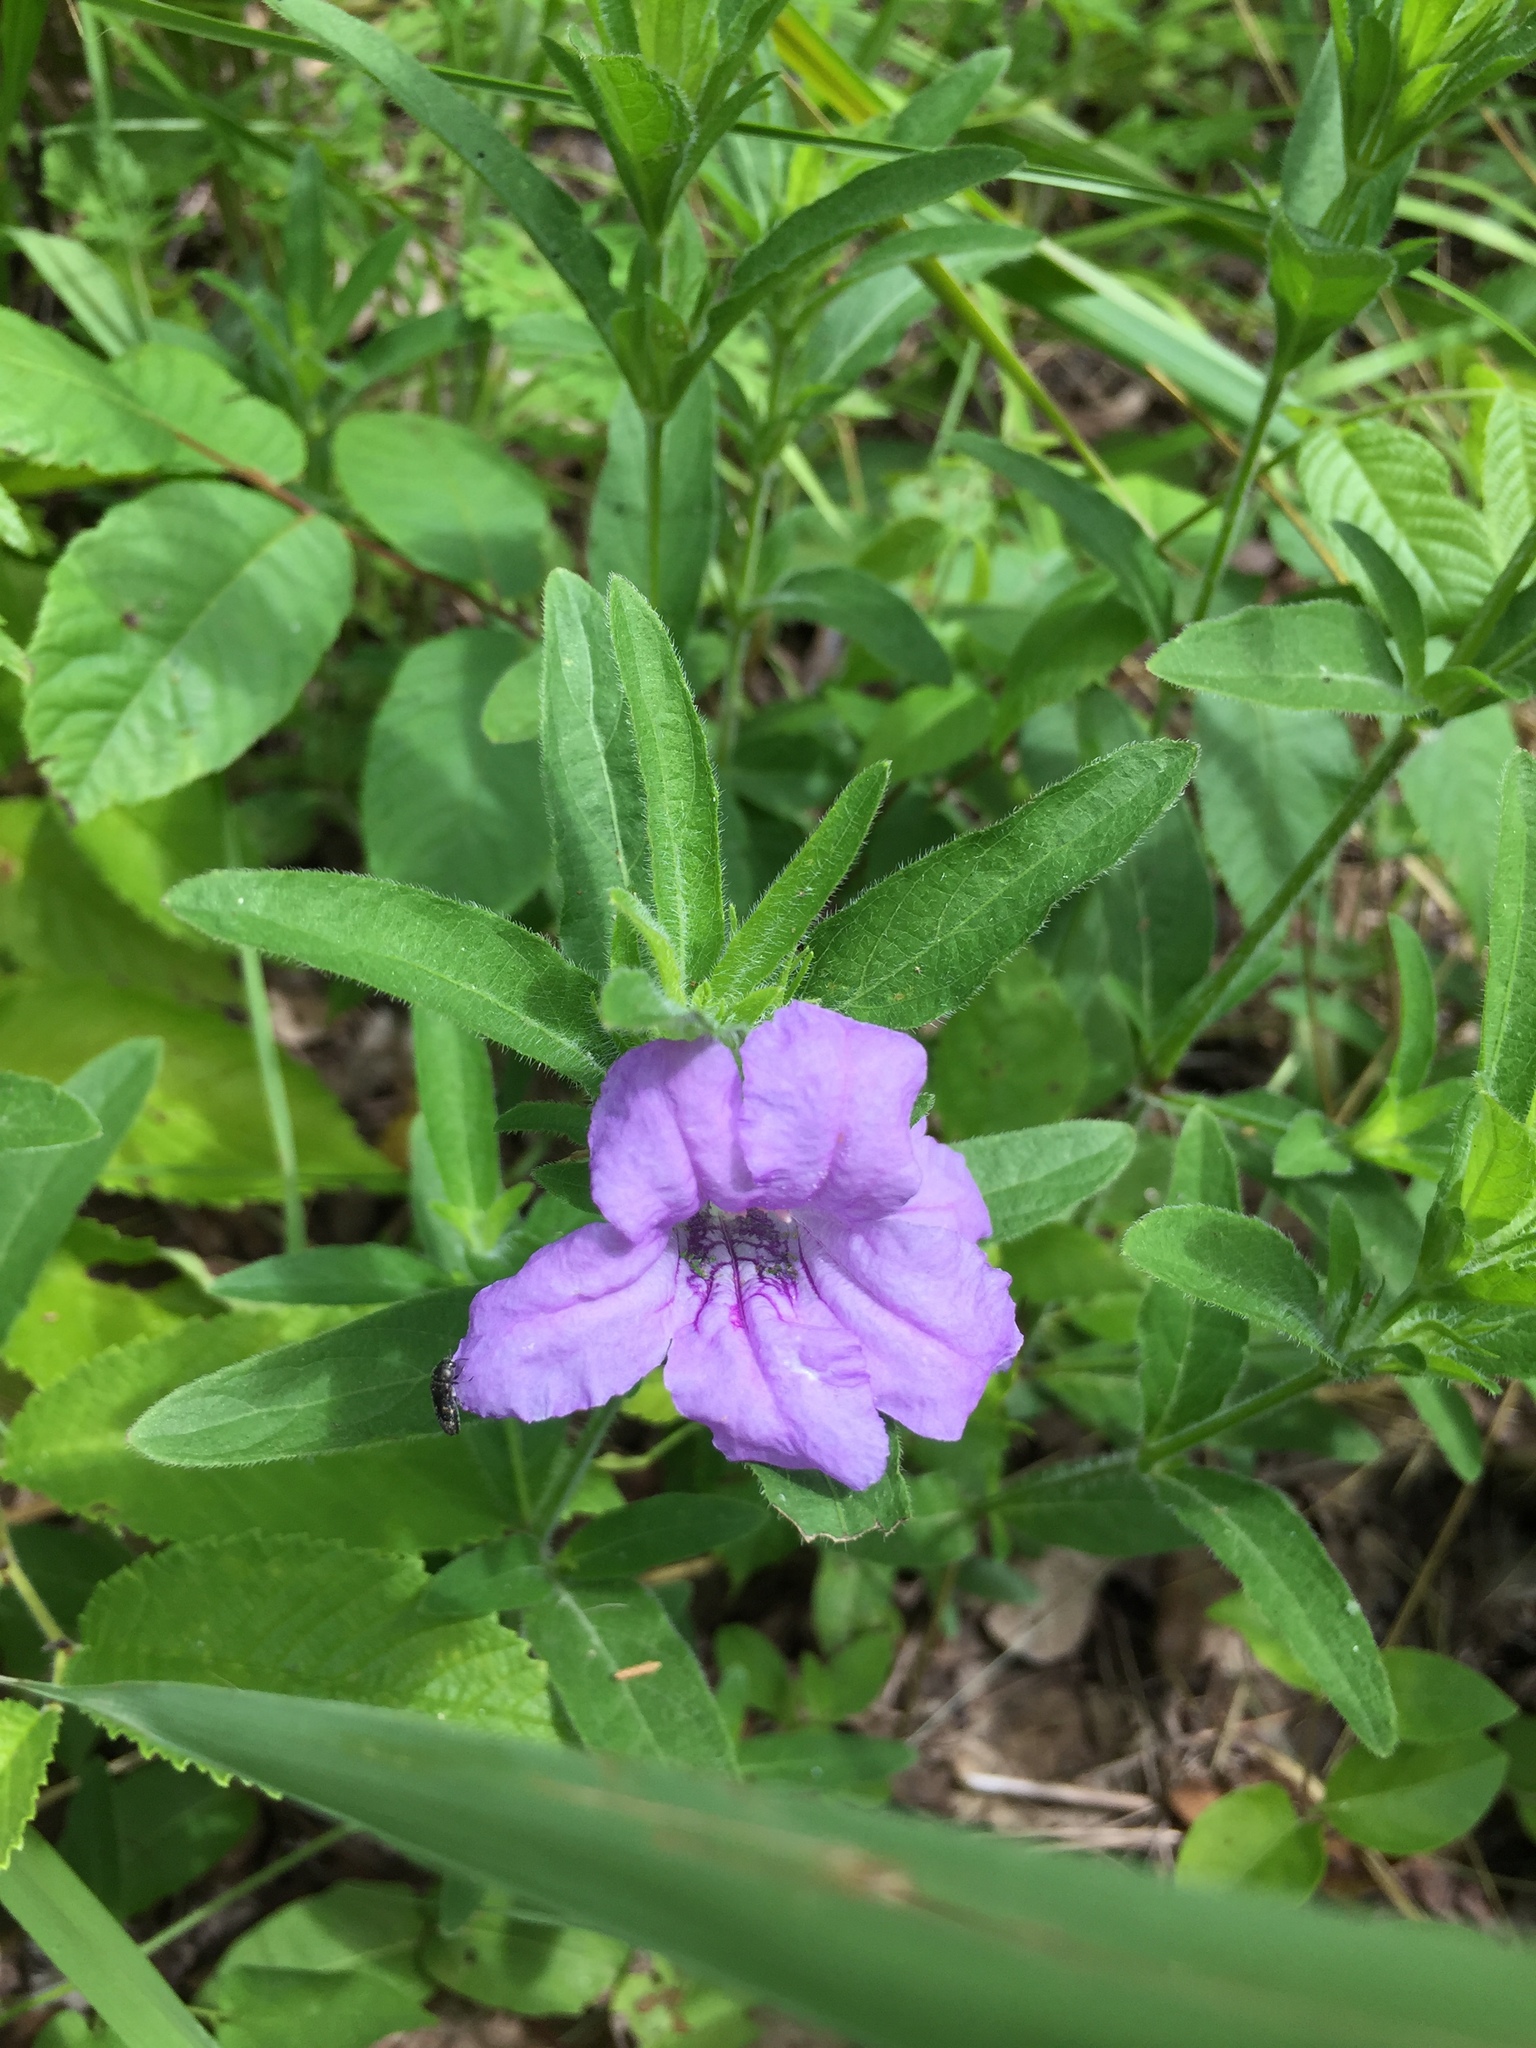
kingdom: Plantae
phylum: Tracheophyta
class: Magnoliopsida
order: Lamiales
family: Acanthaceae
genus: Ruellia
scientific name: Ruellia humilis
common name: Fringe-leaf ruellia
